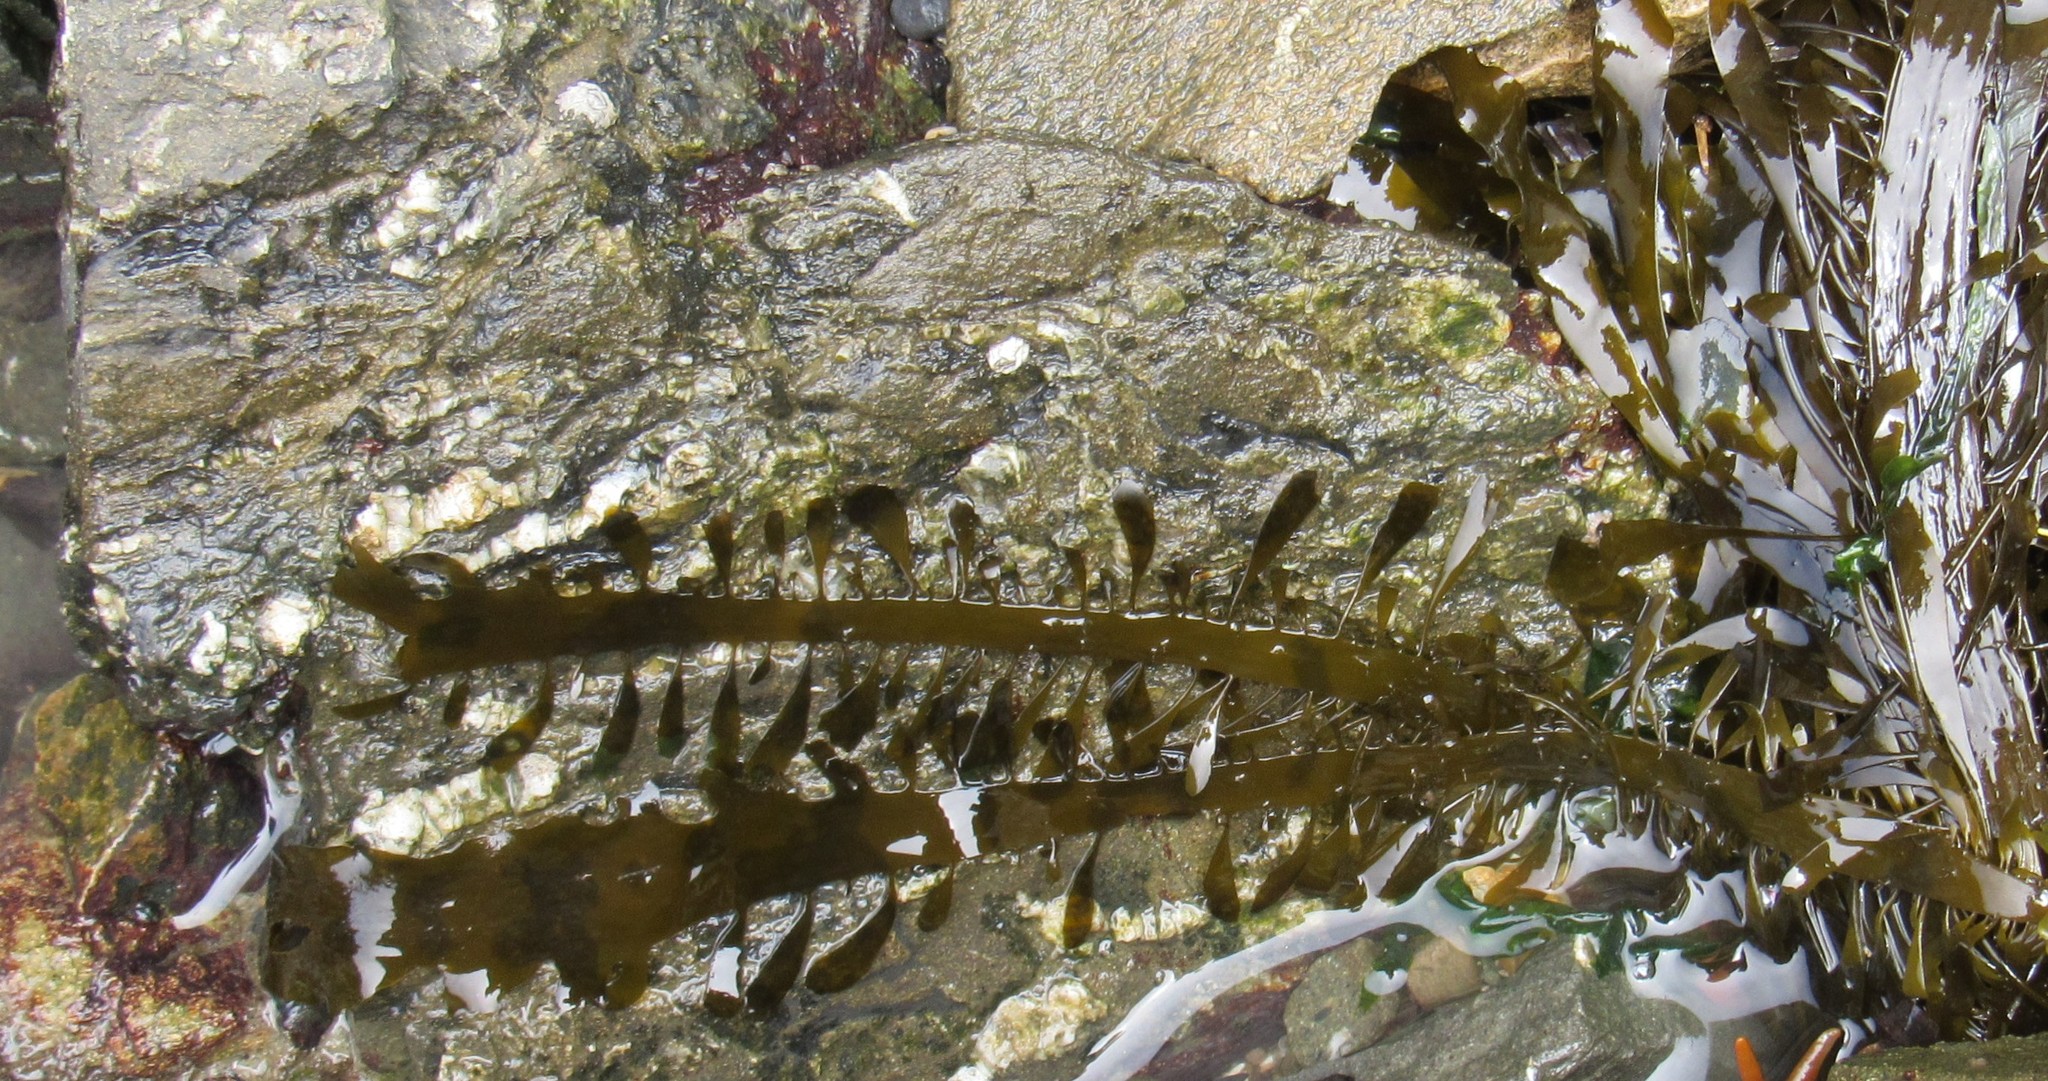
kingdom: Chromista
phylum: Ochrophyta
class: Phaeophyceae
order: Laminariales
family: Lessoniaceae
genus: Egregia
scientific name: Egregia menziesii
